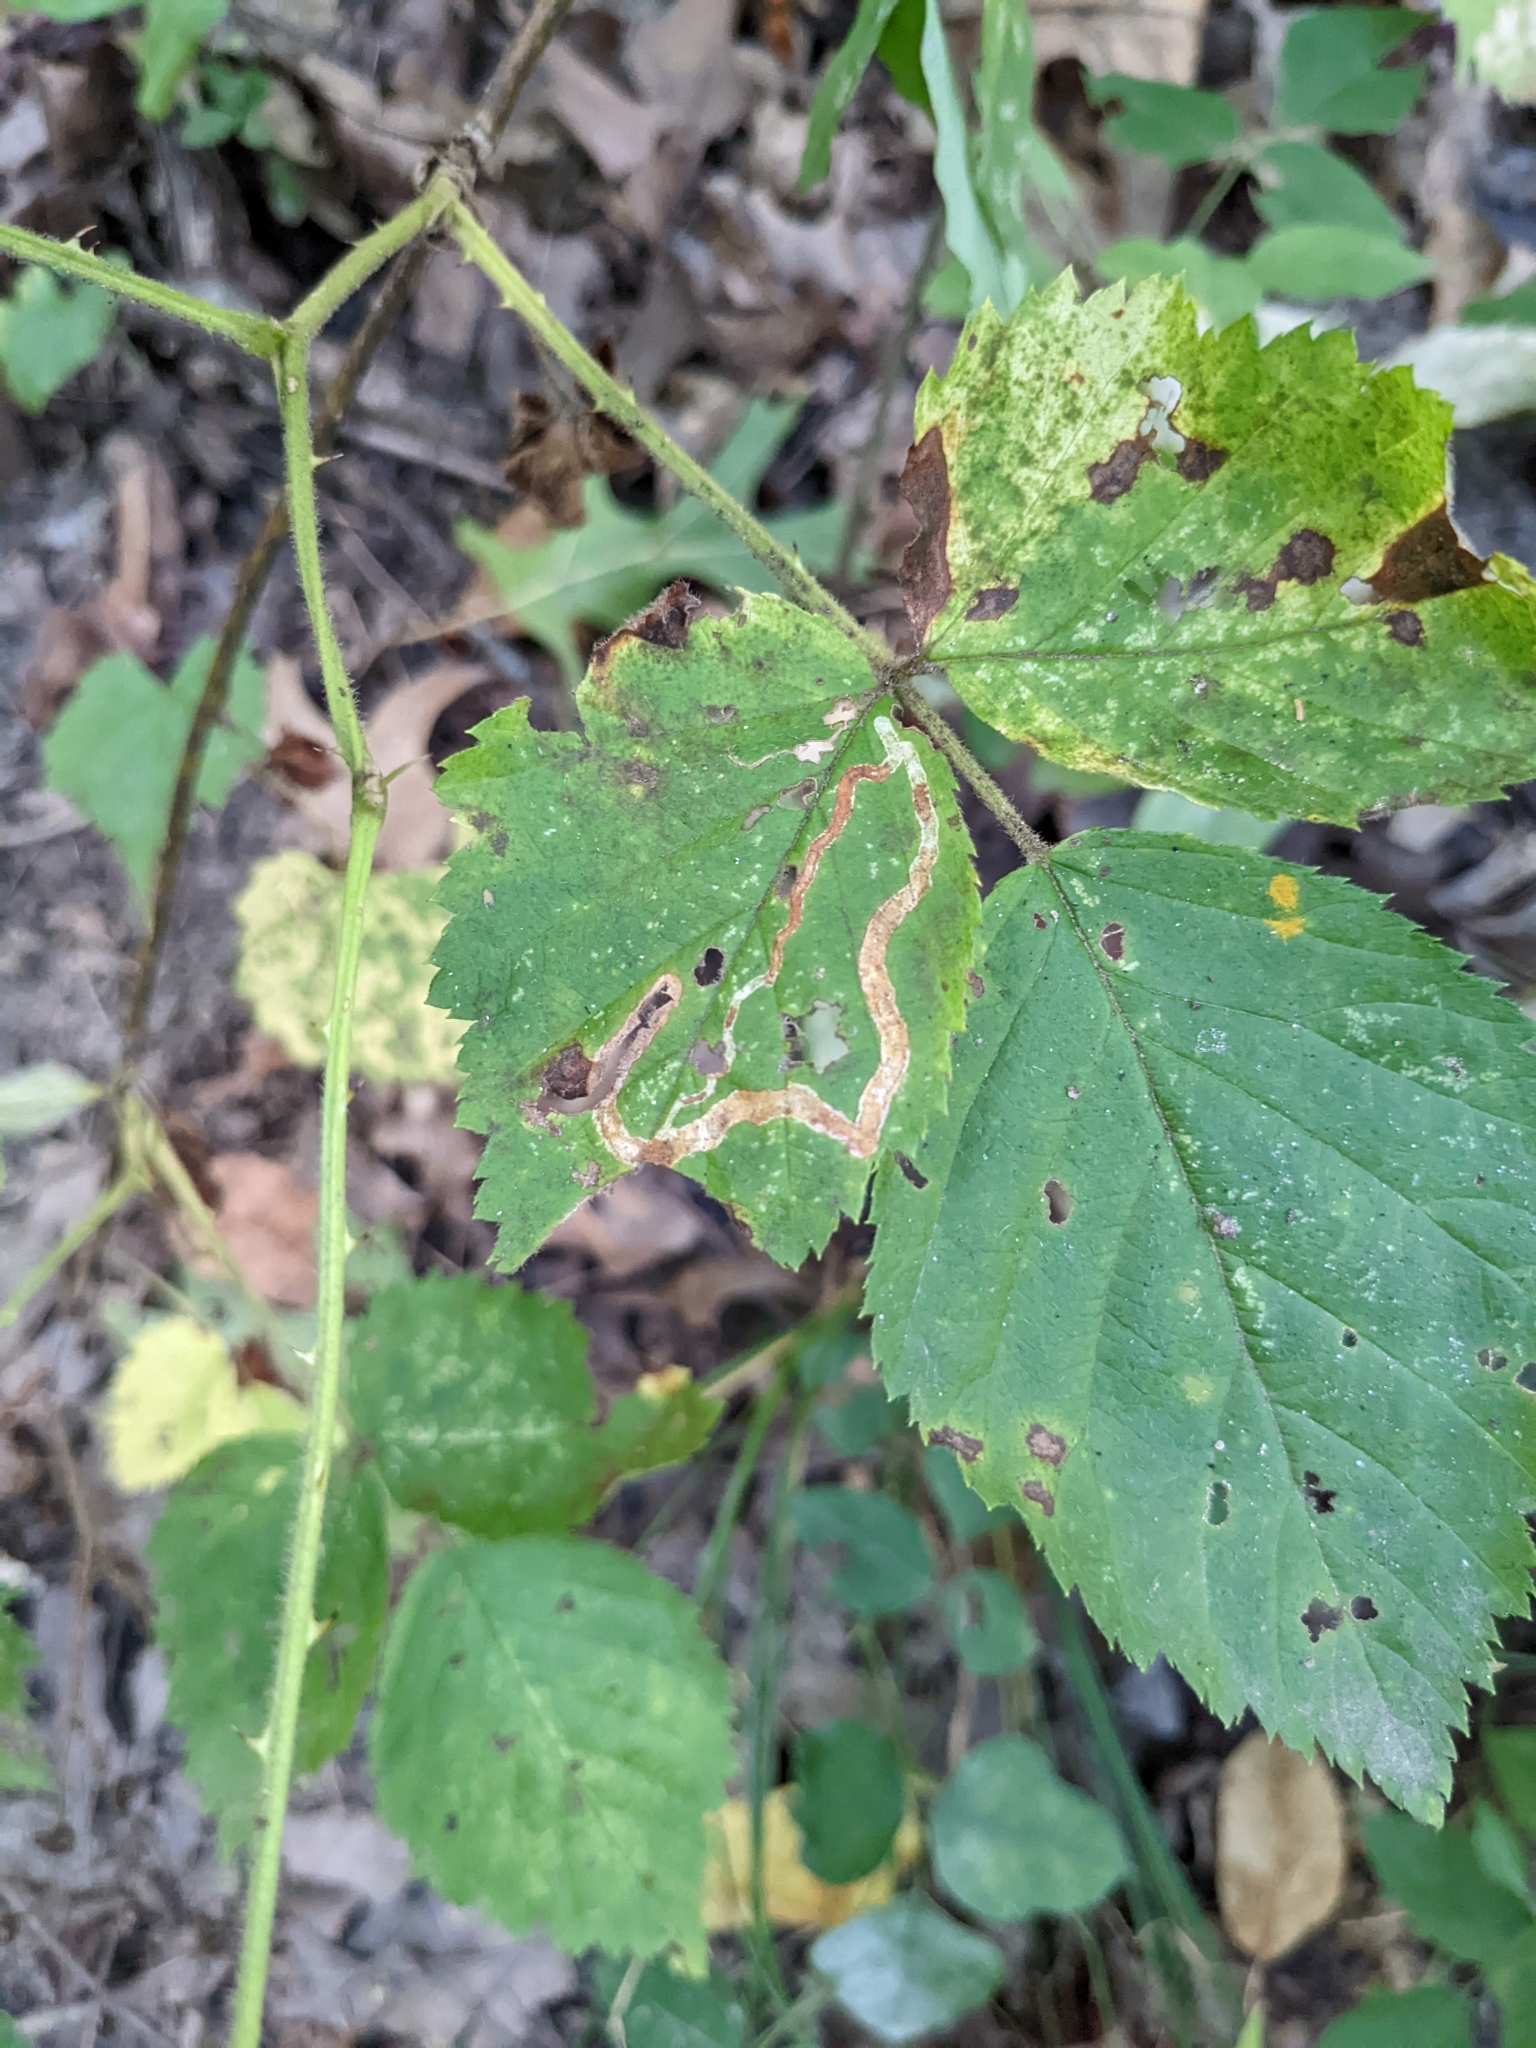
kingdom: Animalia
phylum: Arthropoda
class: Insecta
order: Diptera
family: Agromyzidae
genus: Agromyza
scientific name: Agromyza vockerothi
